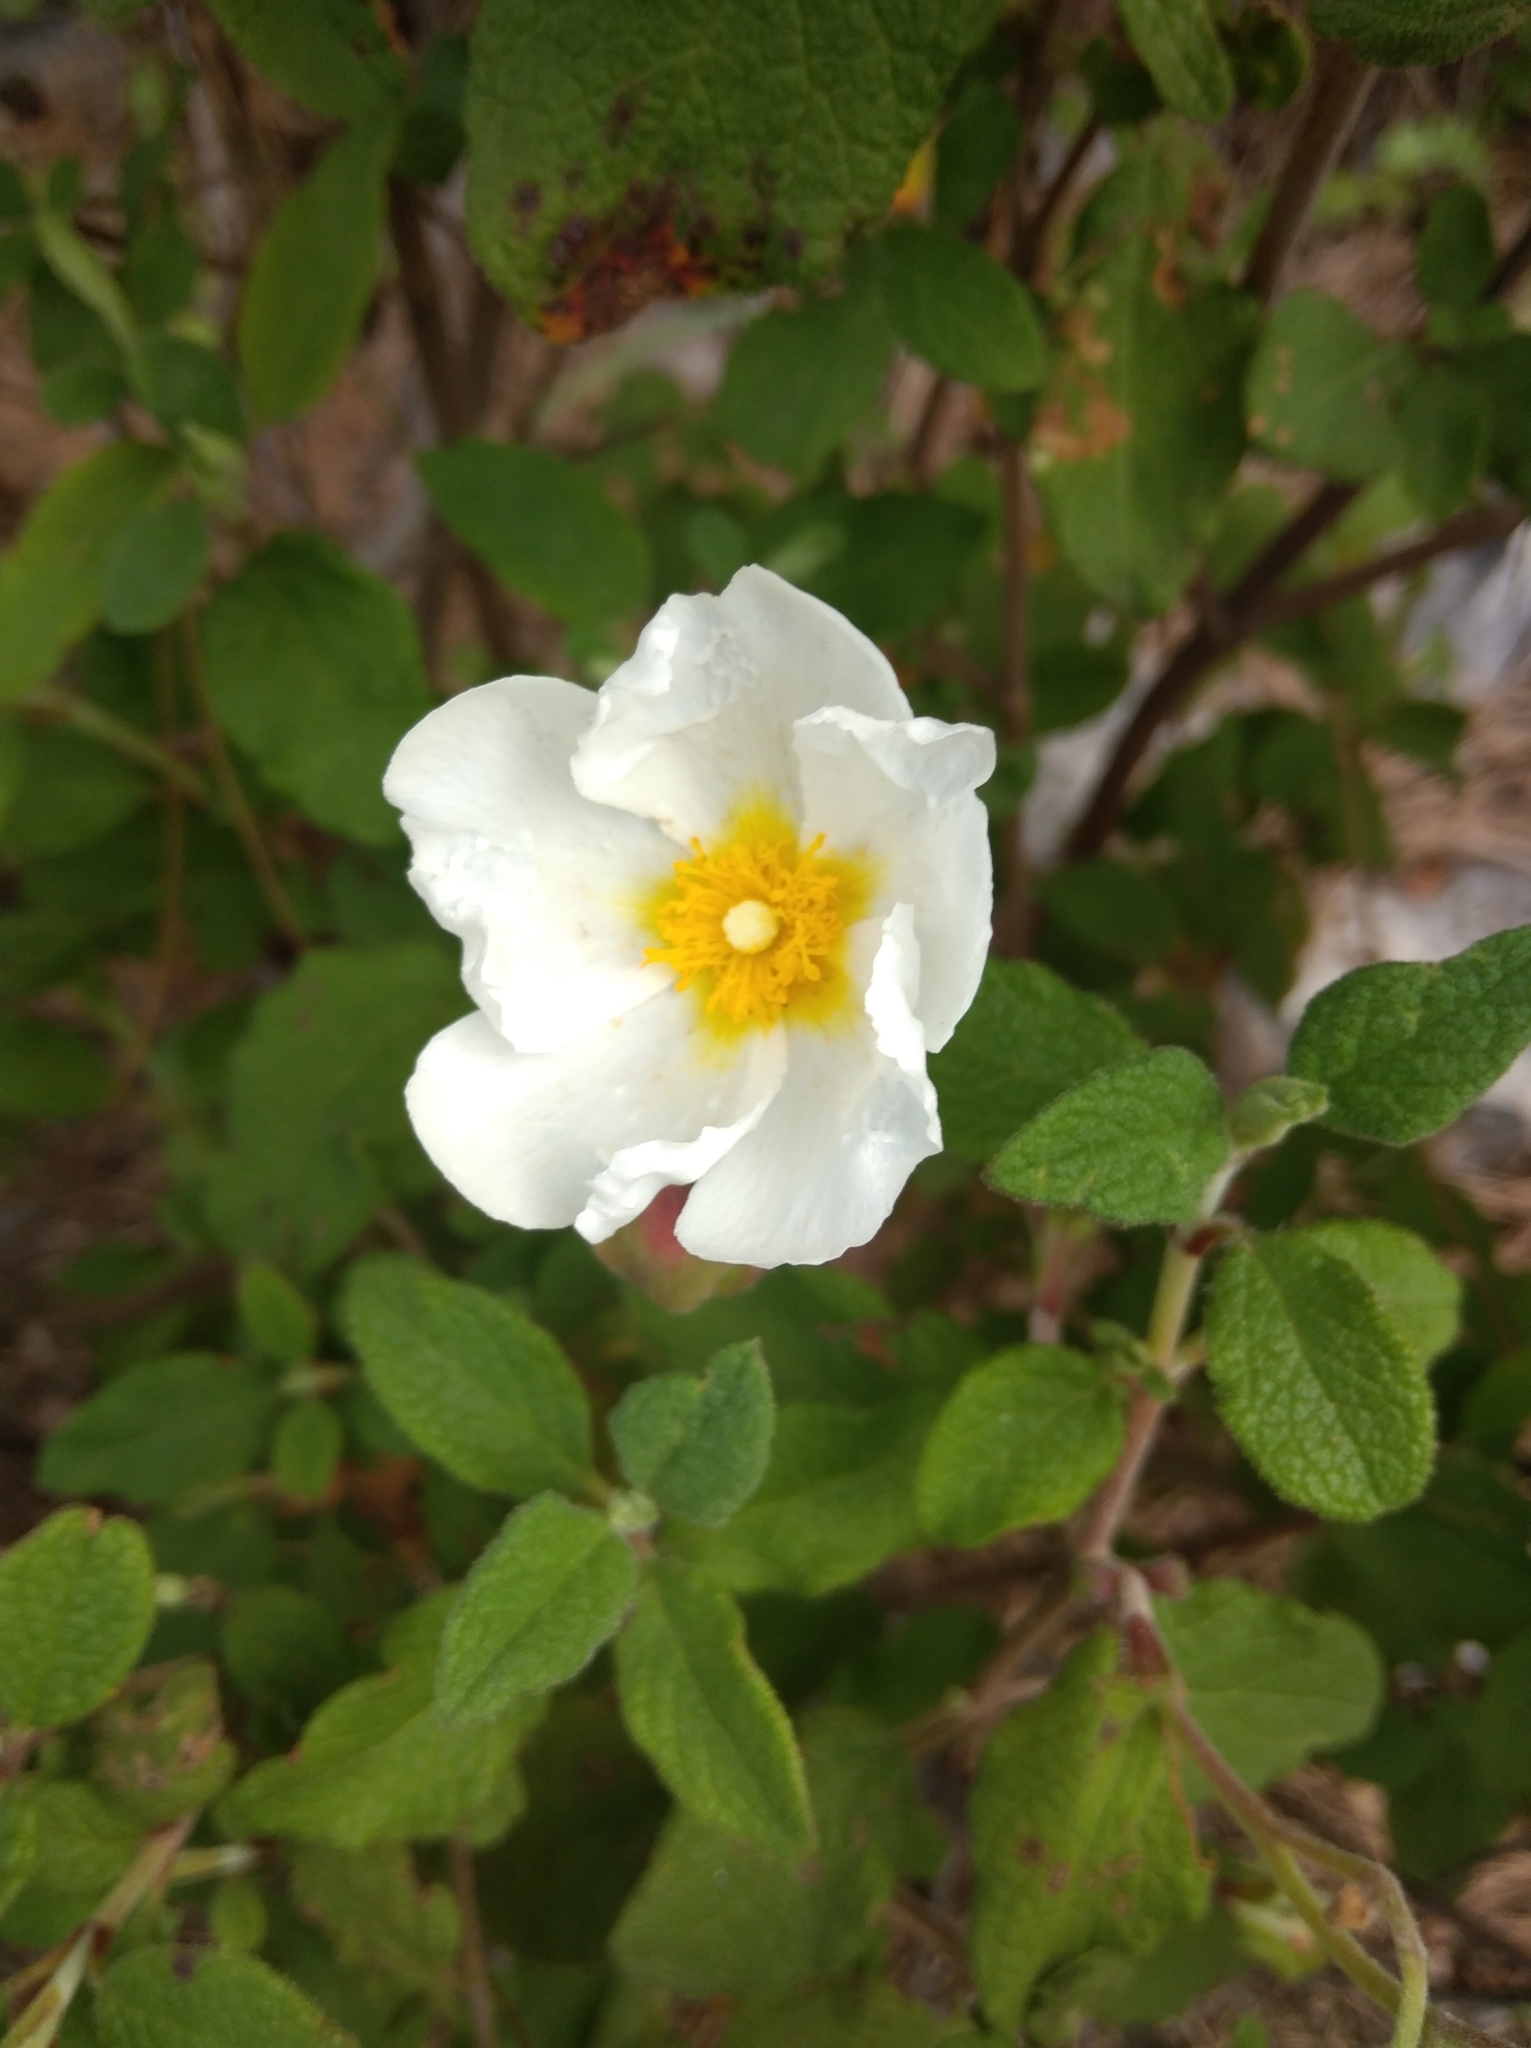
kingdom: Plantae
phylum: Tracheophyta
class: Magnoliopsida
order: Malvales
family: Cistaceae
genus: Cistus
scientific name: Cistus salviifolius
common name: Salvia cistus
